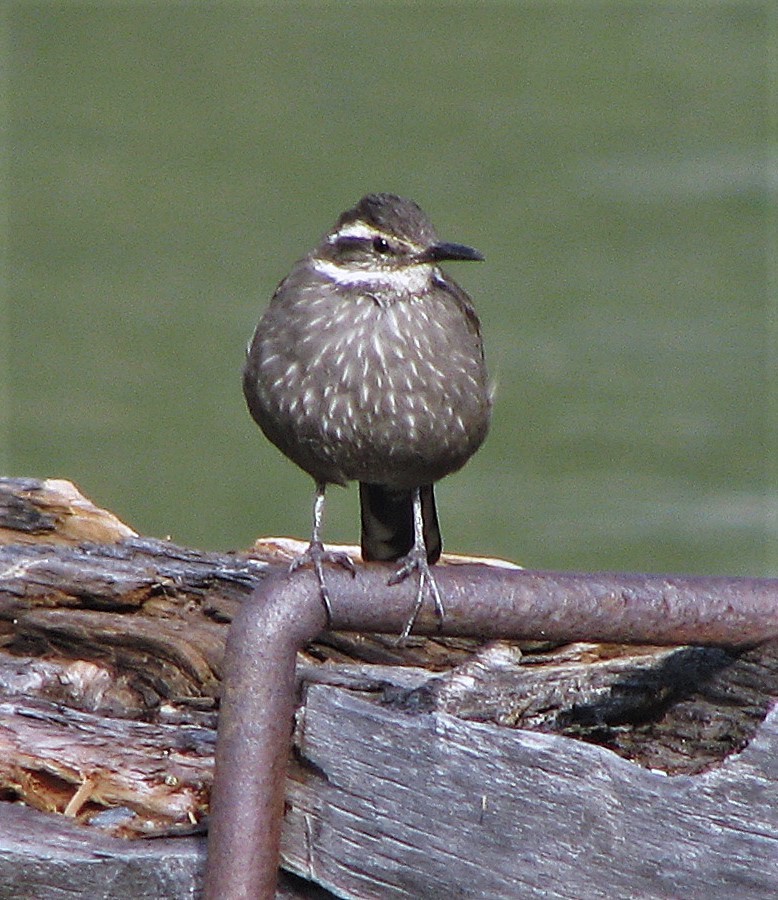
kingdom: Animalia
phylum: Chordata
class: Aves
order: Passeriformes
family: Furnariidae
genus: Cinclodes
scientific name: Cinclodes patagonicus
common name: Dark-bellied cinclodes
